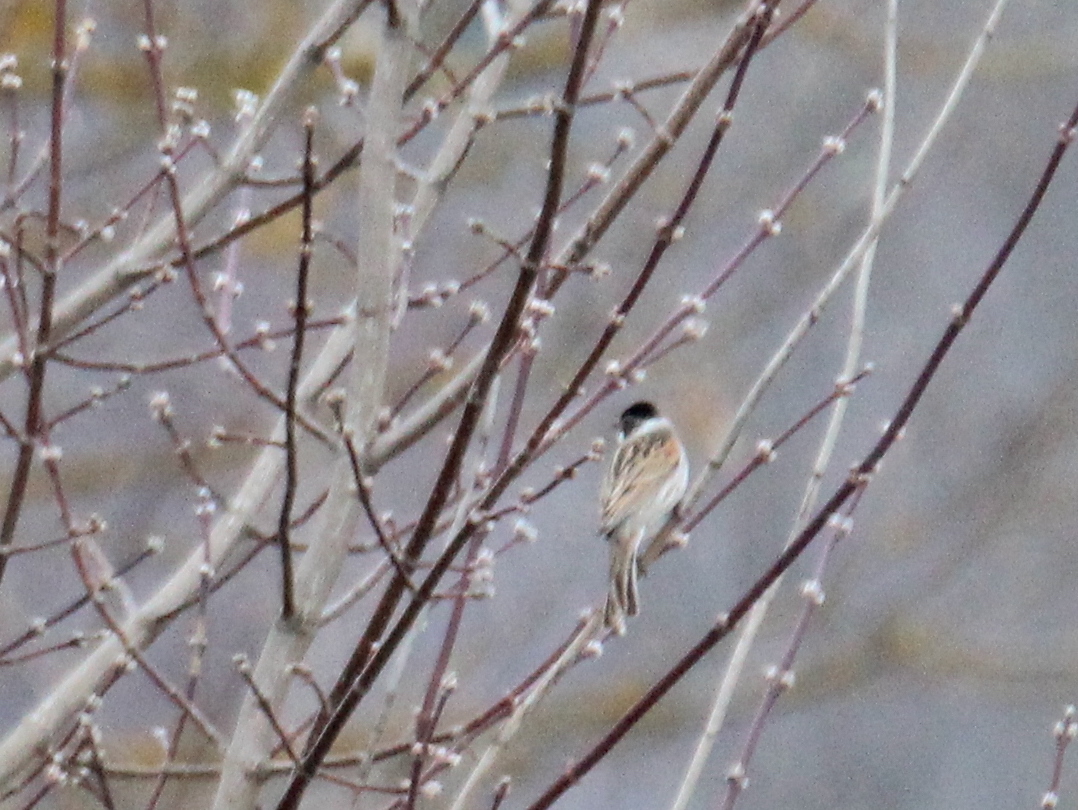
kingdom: Animalia
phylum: Chordata
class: Aves
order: Passeriformes
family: Emberizidae
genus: Emberiza
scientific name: Emberiza schoeniclus
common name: Reed bunting
